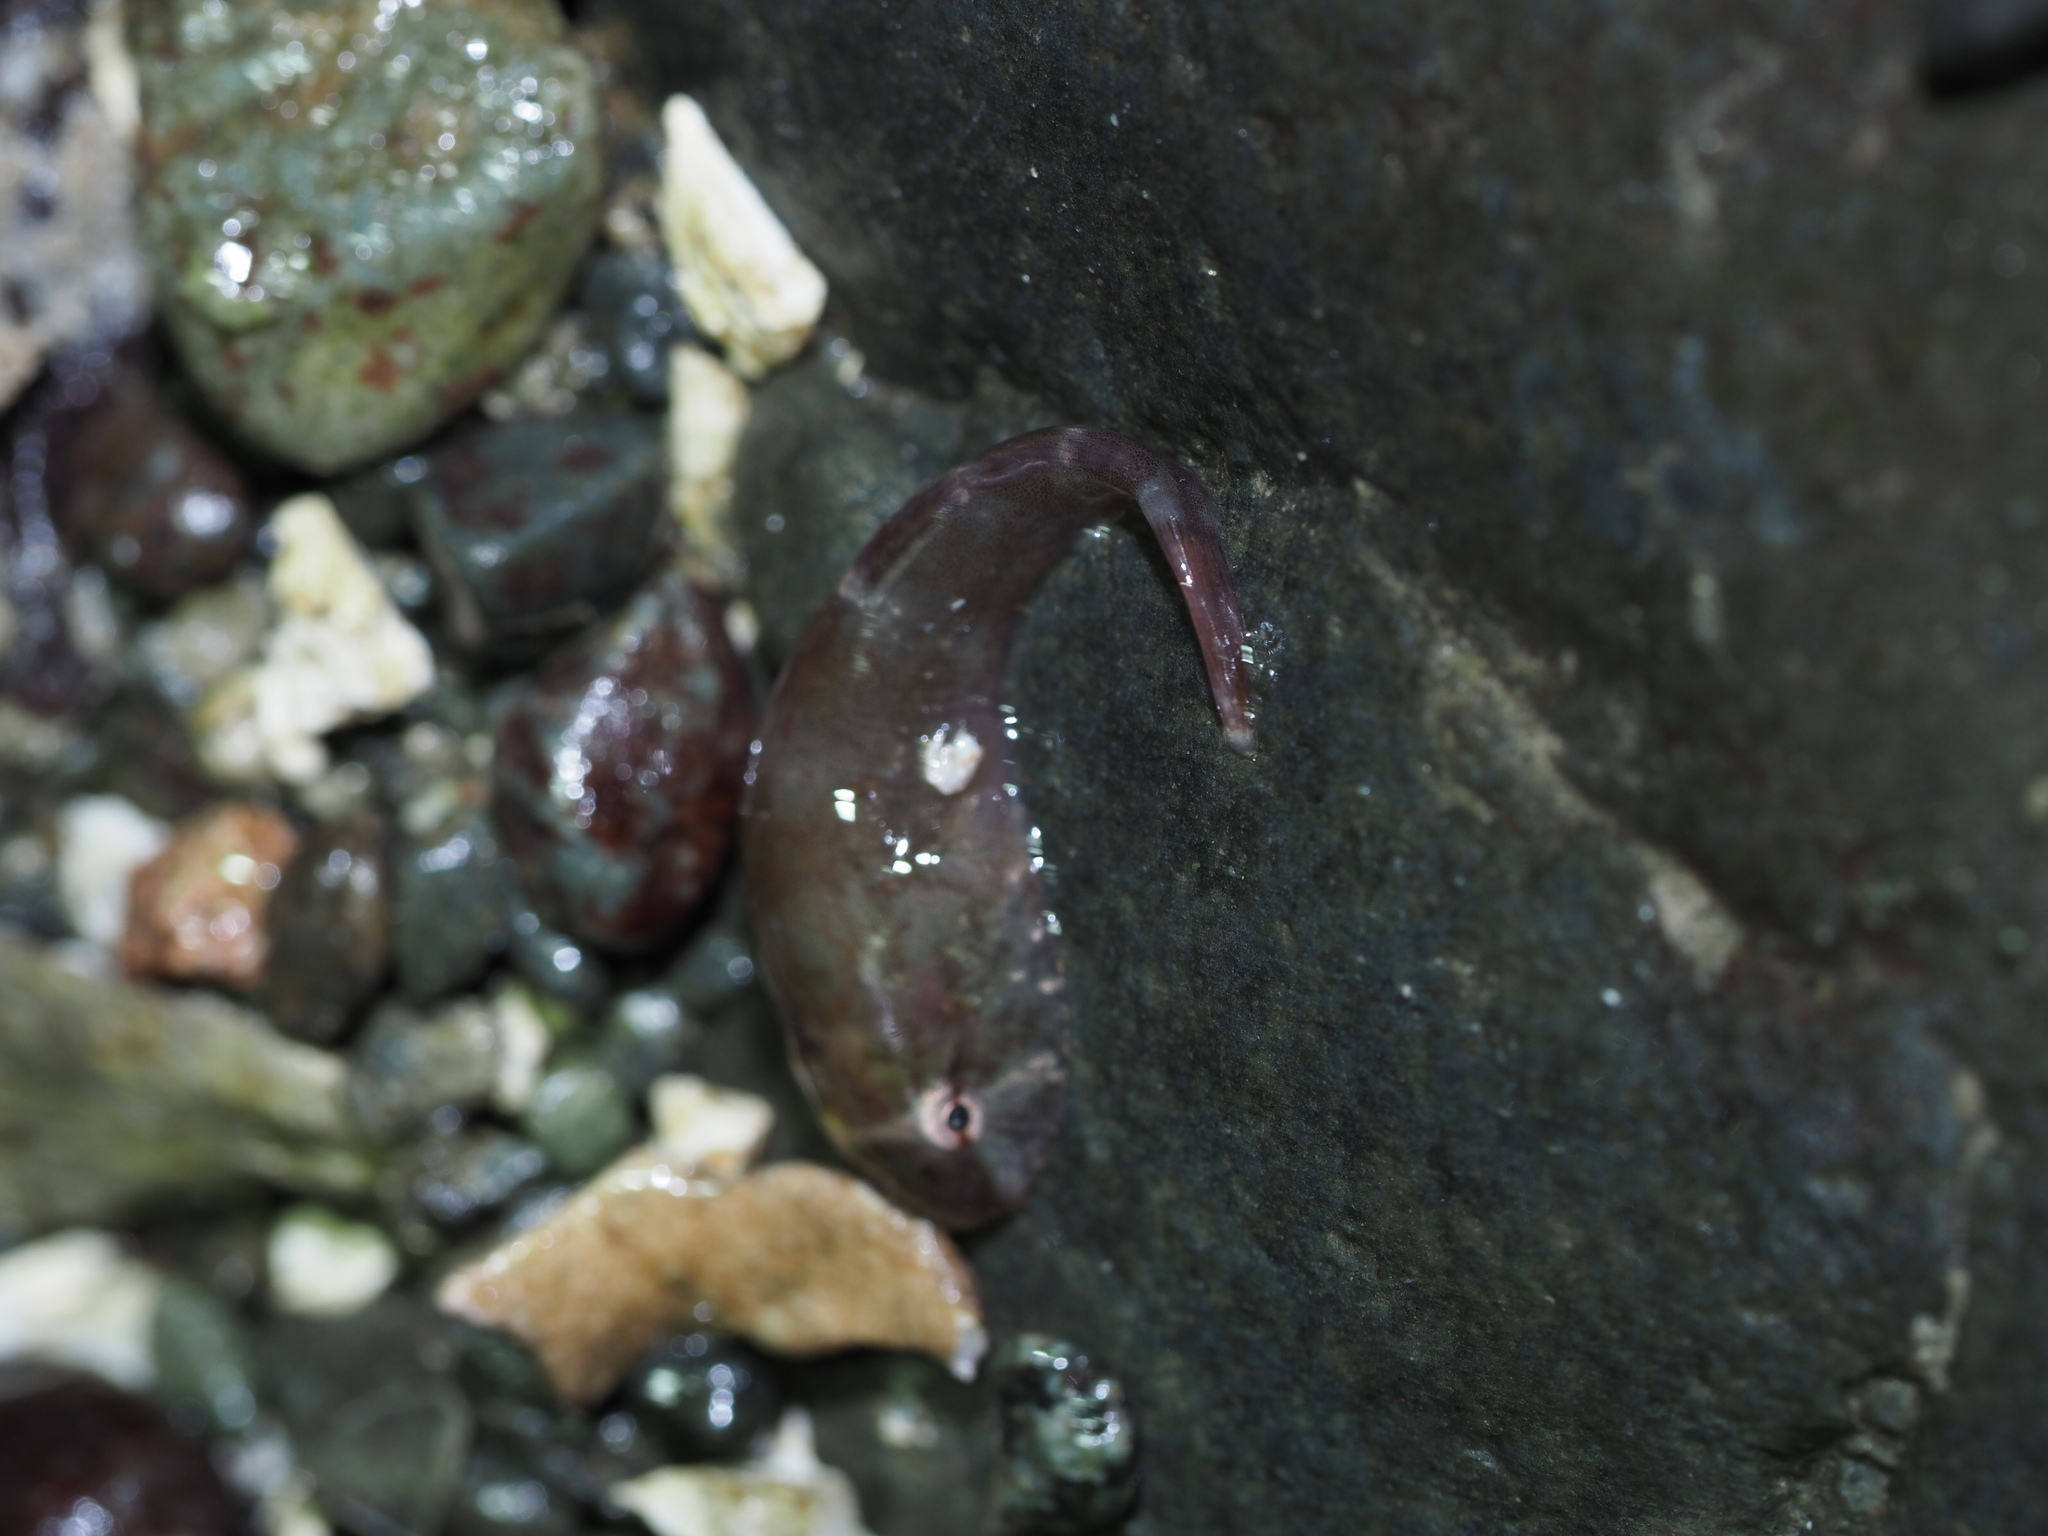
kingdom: Animalia
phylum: Chordata
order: Gobiesociformes
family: Gobiesocidae
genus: Gobiesox
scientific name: Gobiesox maeandricus
